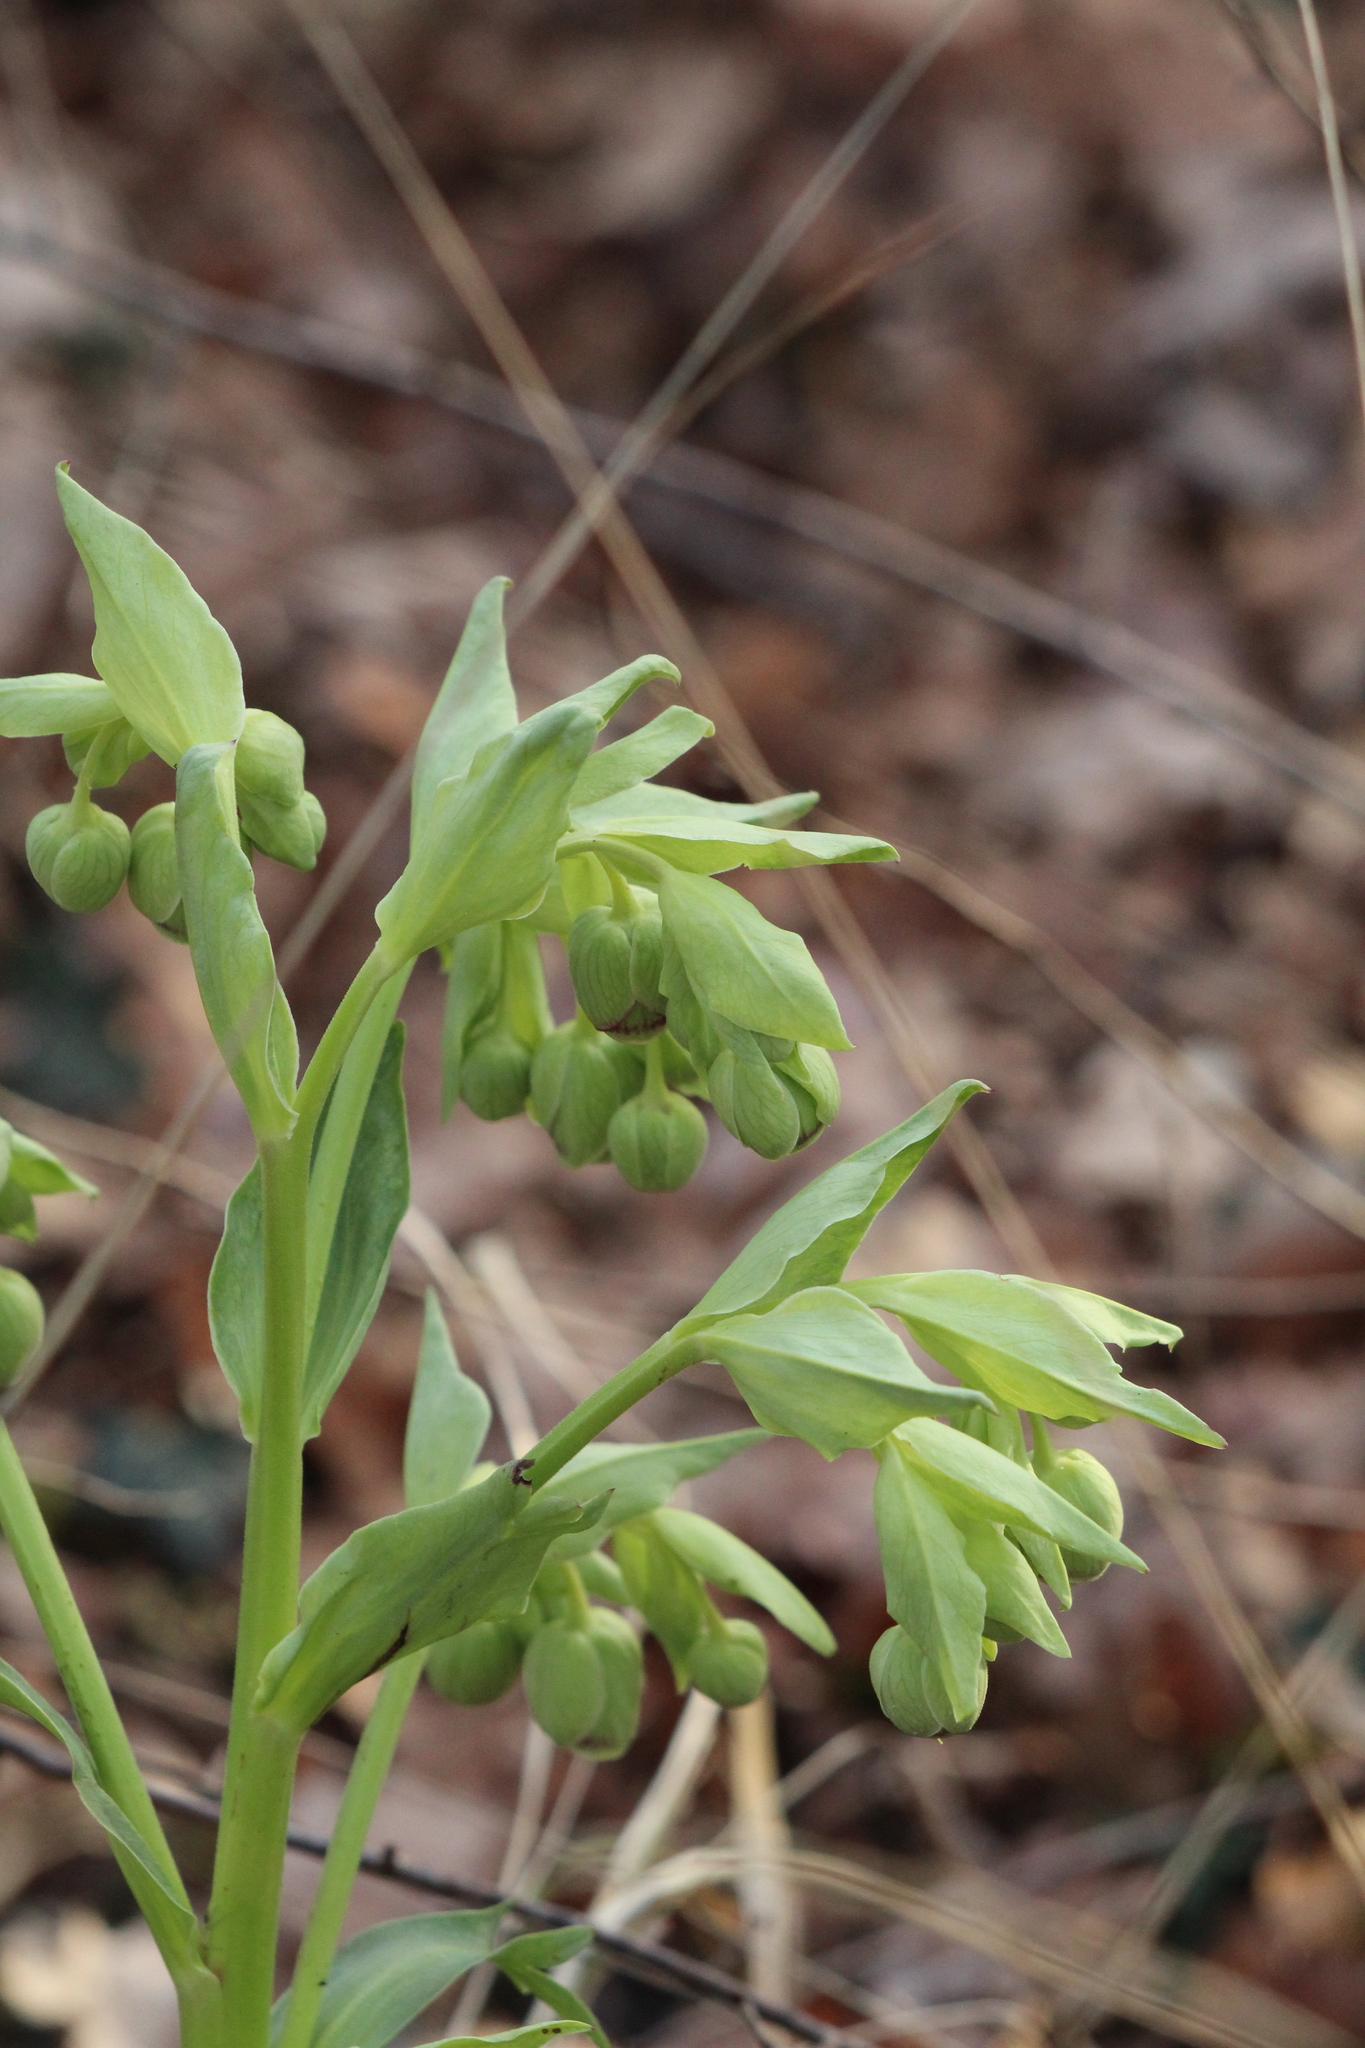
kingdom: Plantae
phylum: Tracheophyta
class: Magnoliopsida
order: Ranunculales
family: Ranunculaceae
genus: Helleborus
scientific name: Helleborus foetidus
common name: Stinking hellebore
